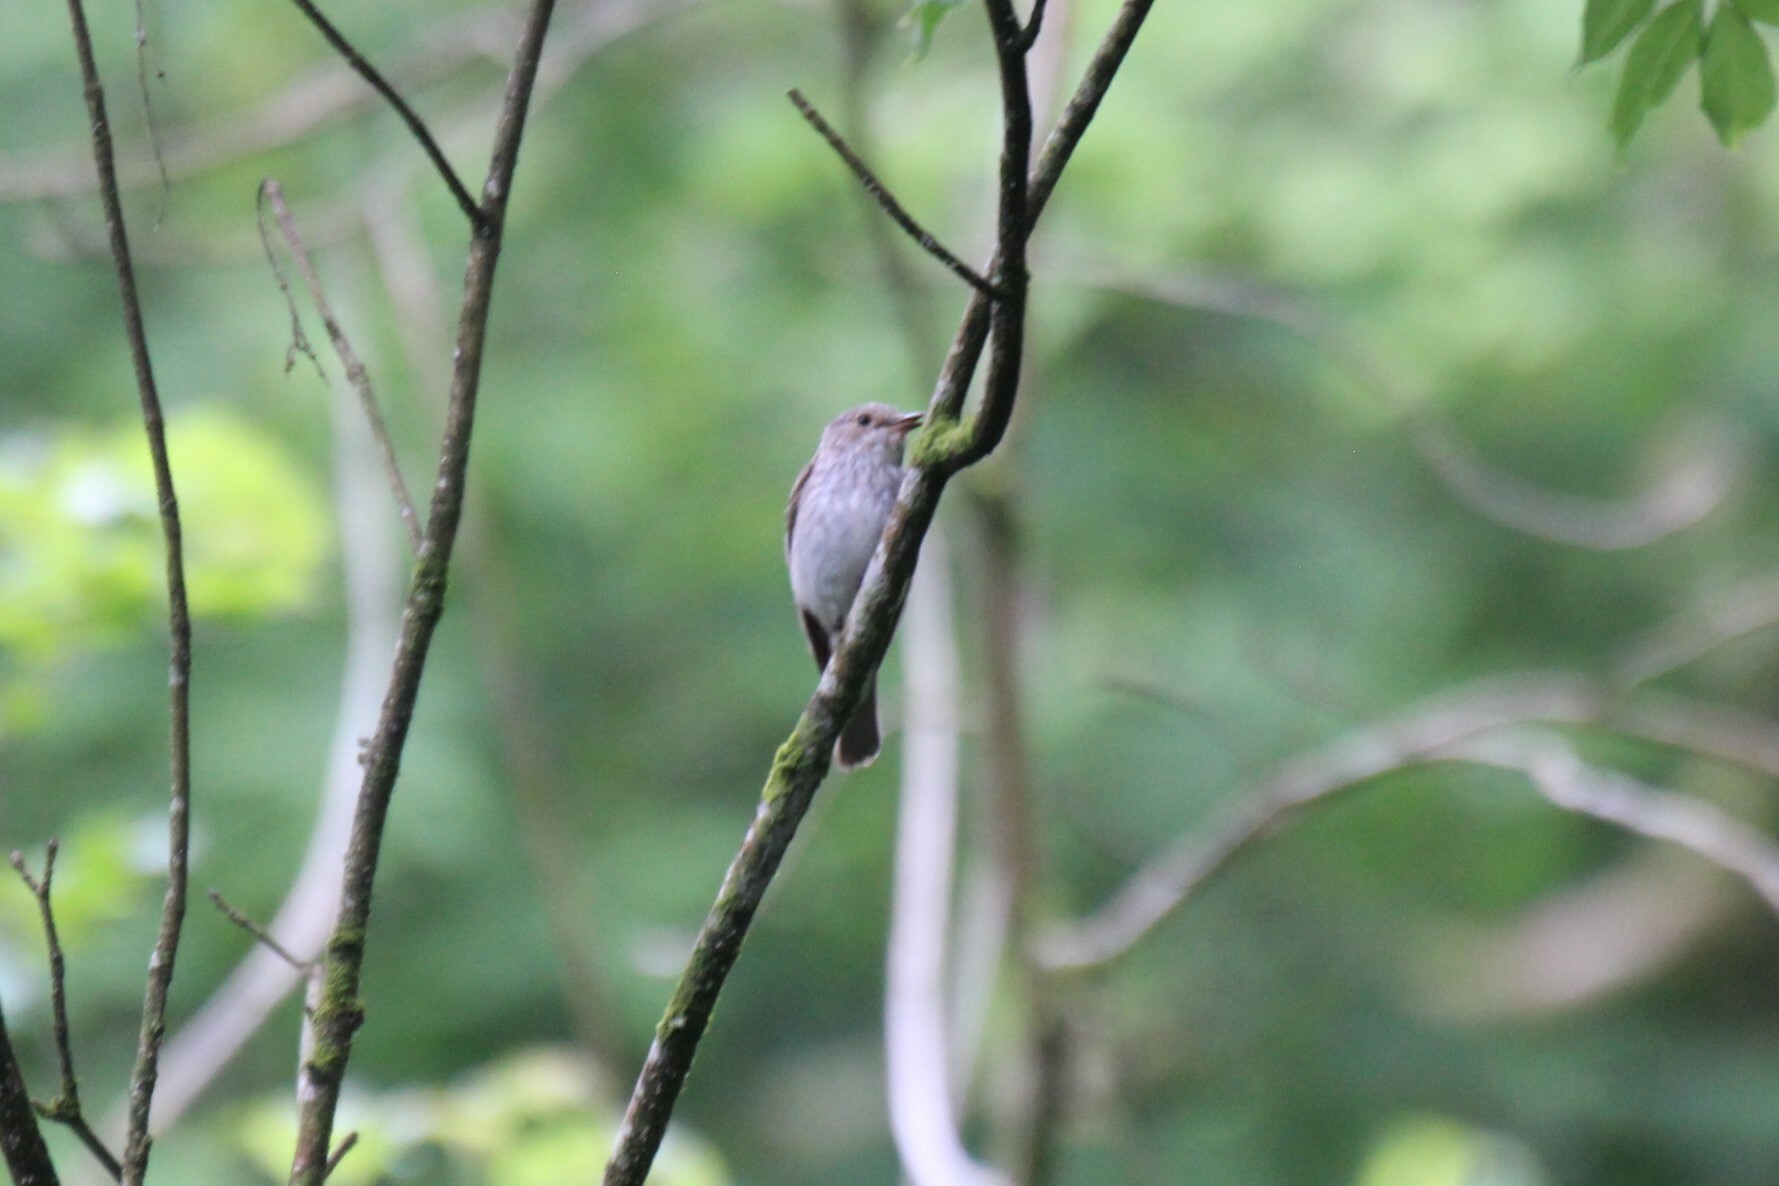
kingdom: Animalia
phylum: Chordata
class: Aves
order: Passeriformes
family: Muscicapidae
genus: Muscicapa
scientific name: Muscicapa striata
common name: Spotted flycatcher
